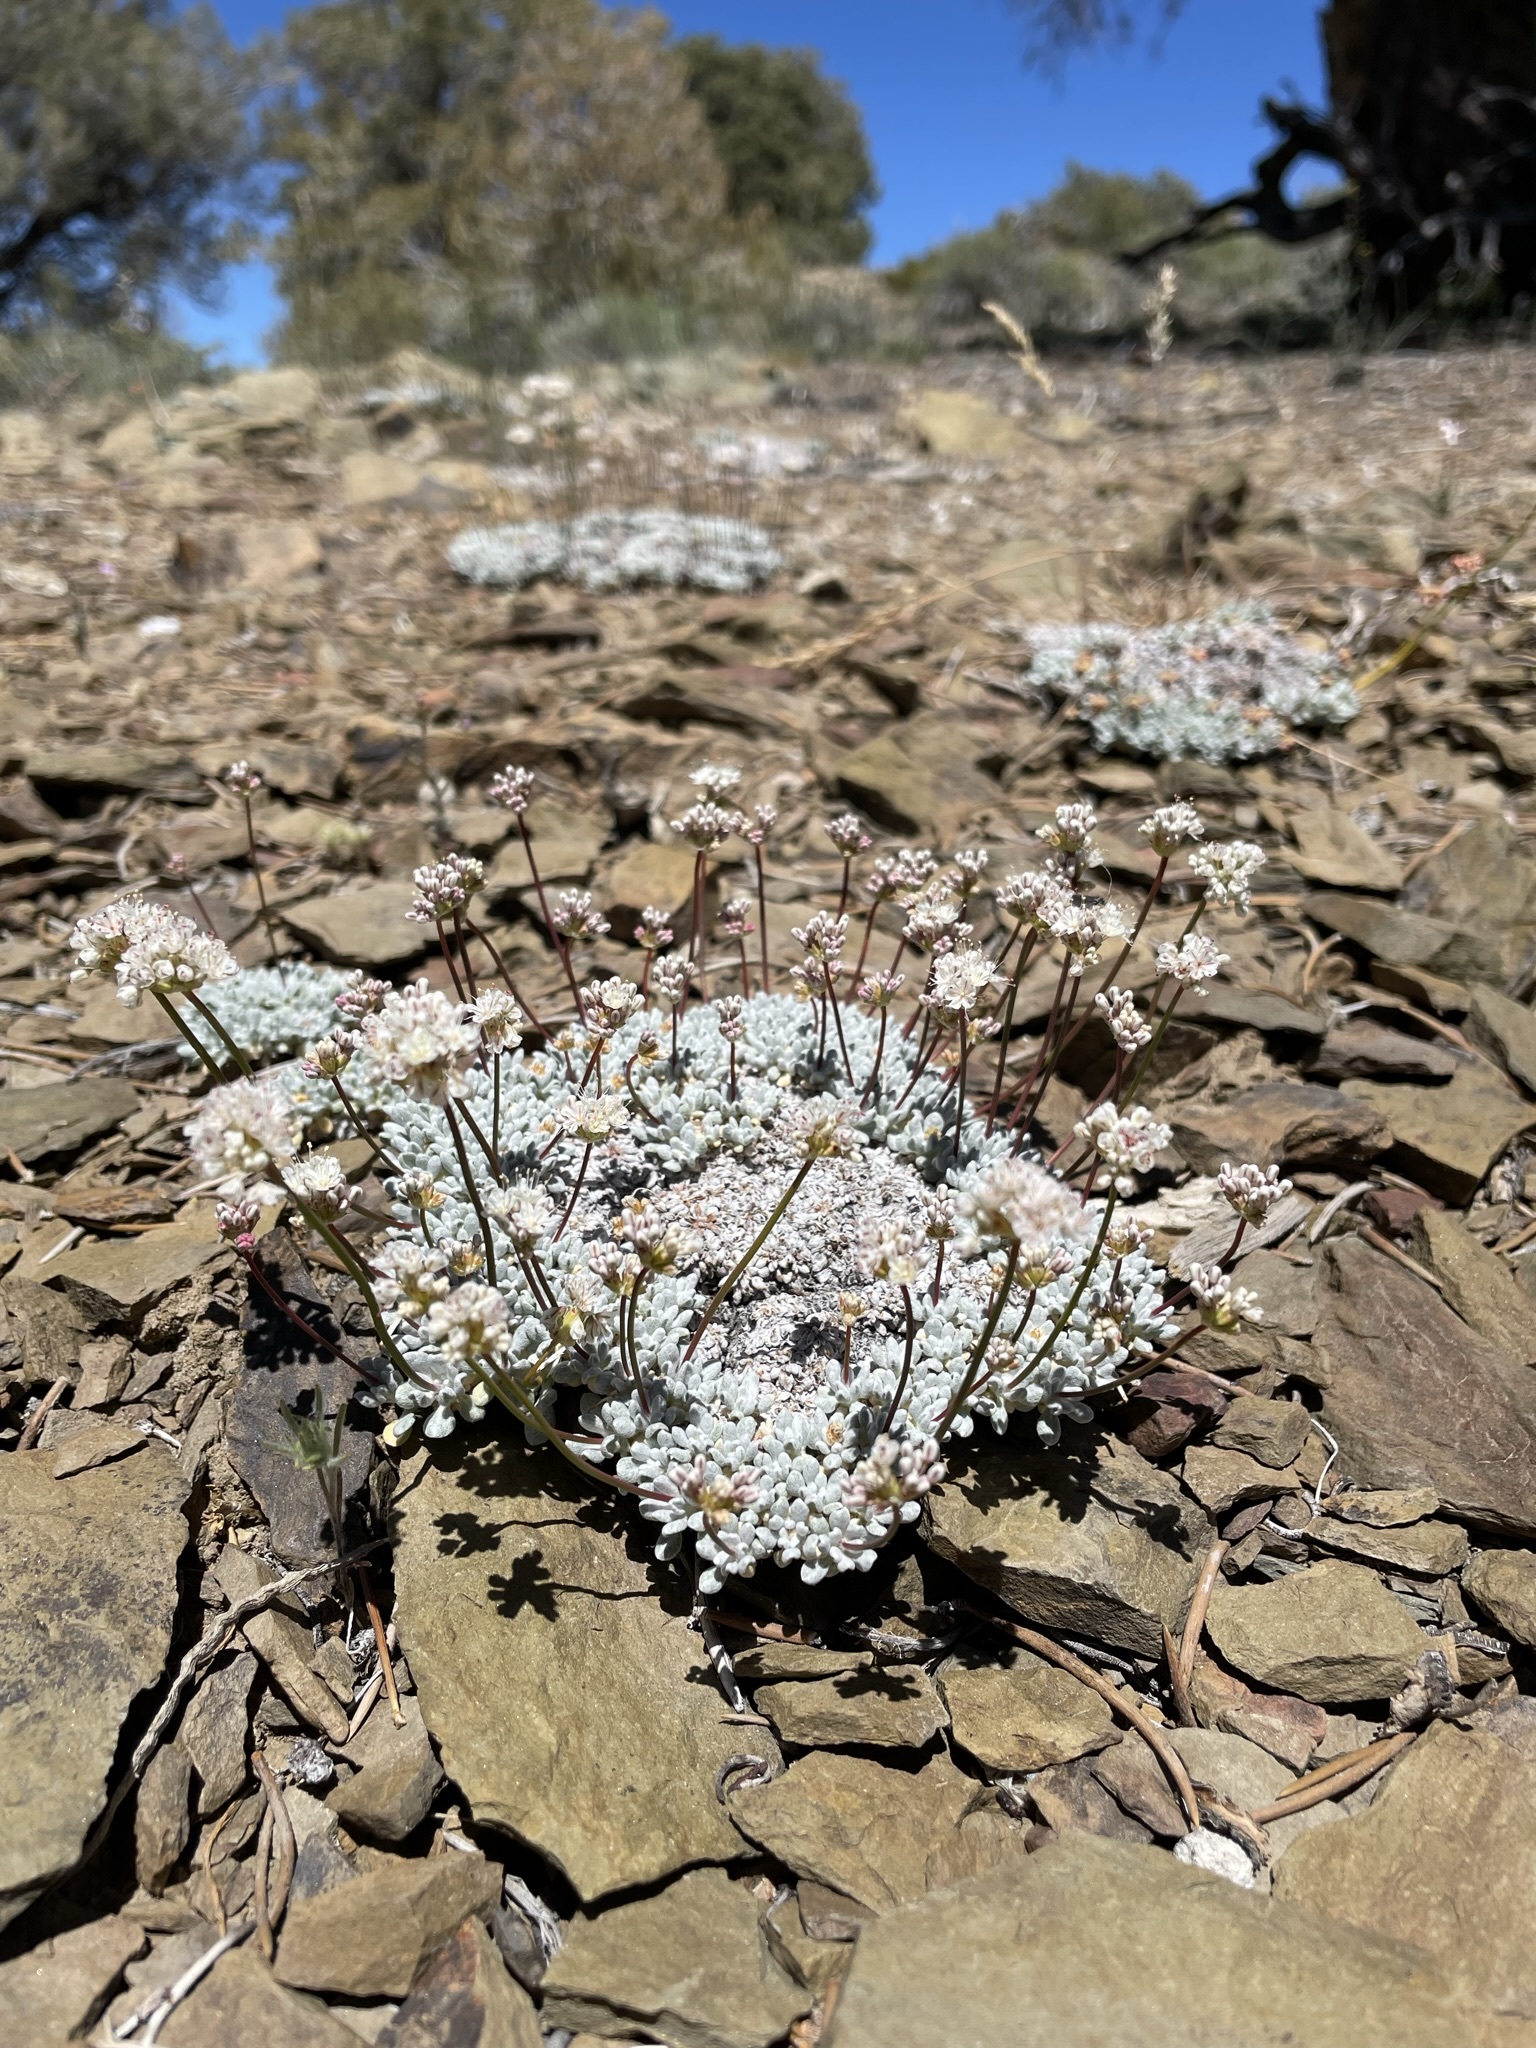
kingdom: Plantae
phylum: Tracheophyta
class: Magnoliopsida
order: Caryophyllales
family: Polygonaceae
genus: Eriogonum
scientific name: Eriogonum kennedyi
